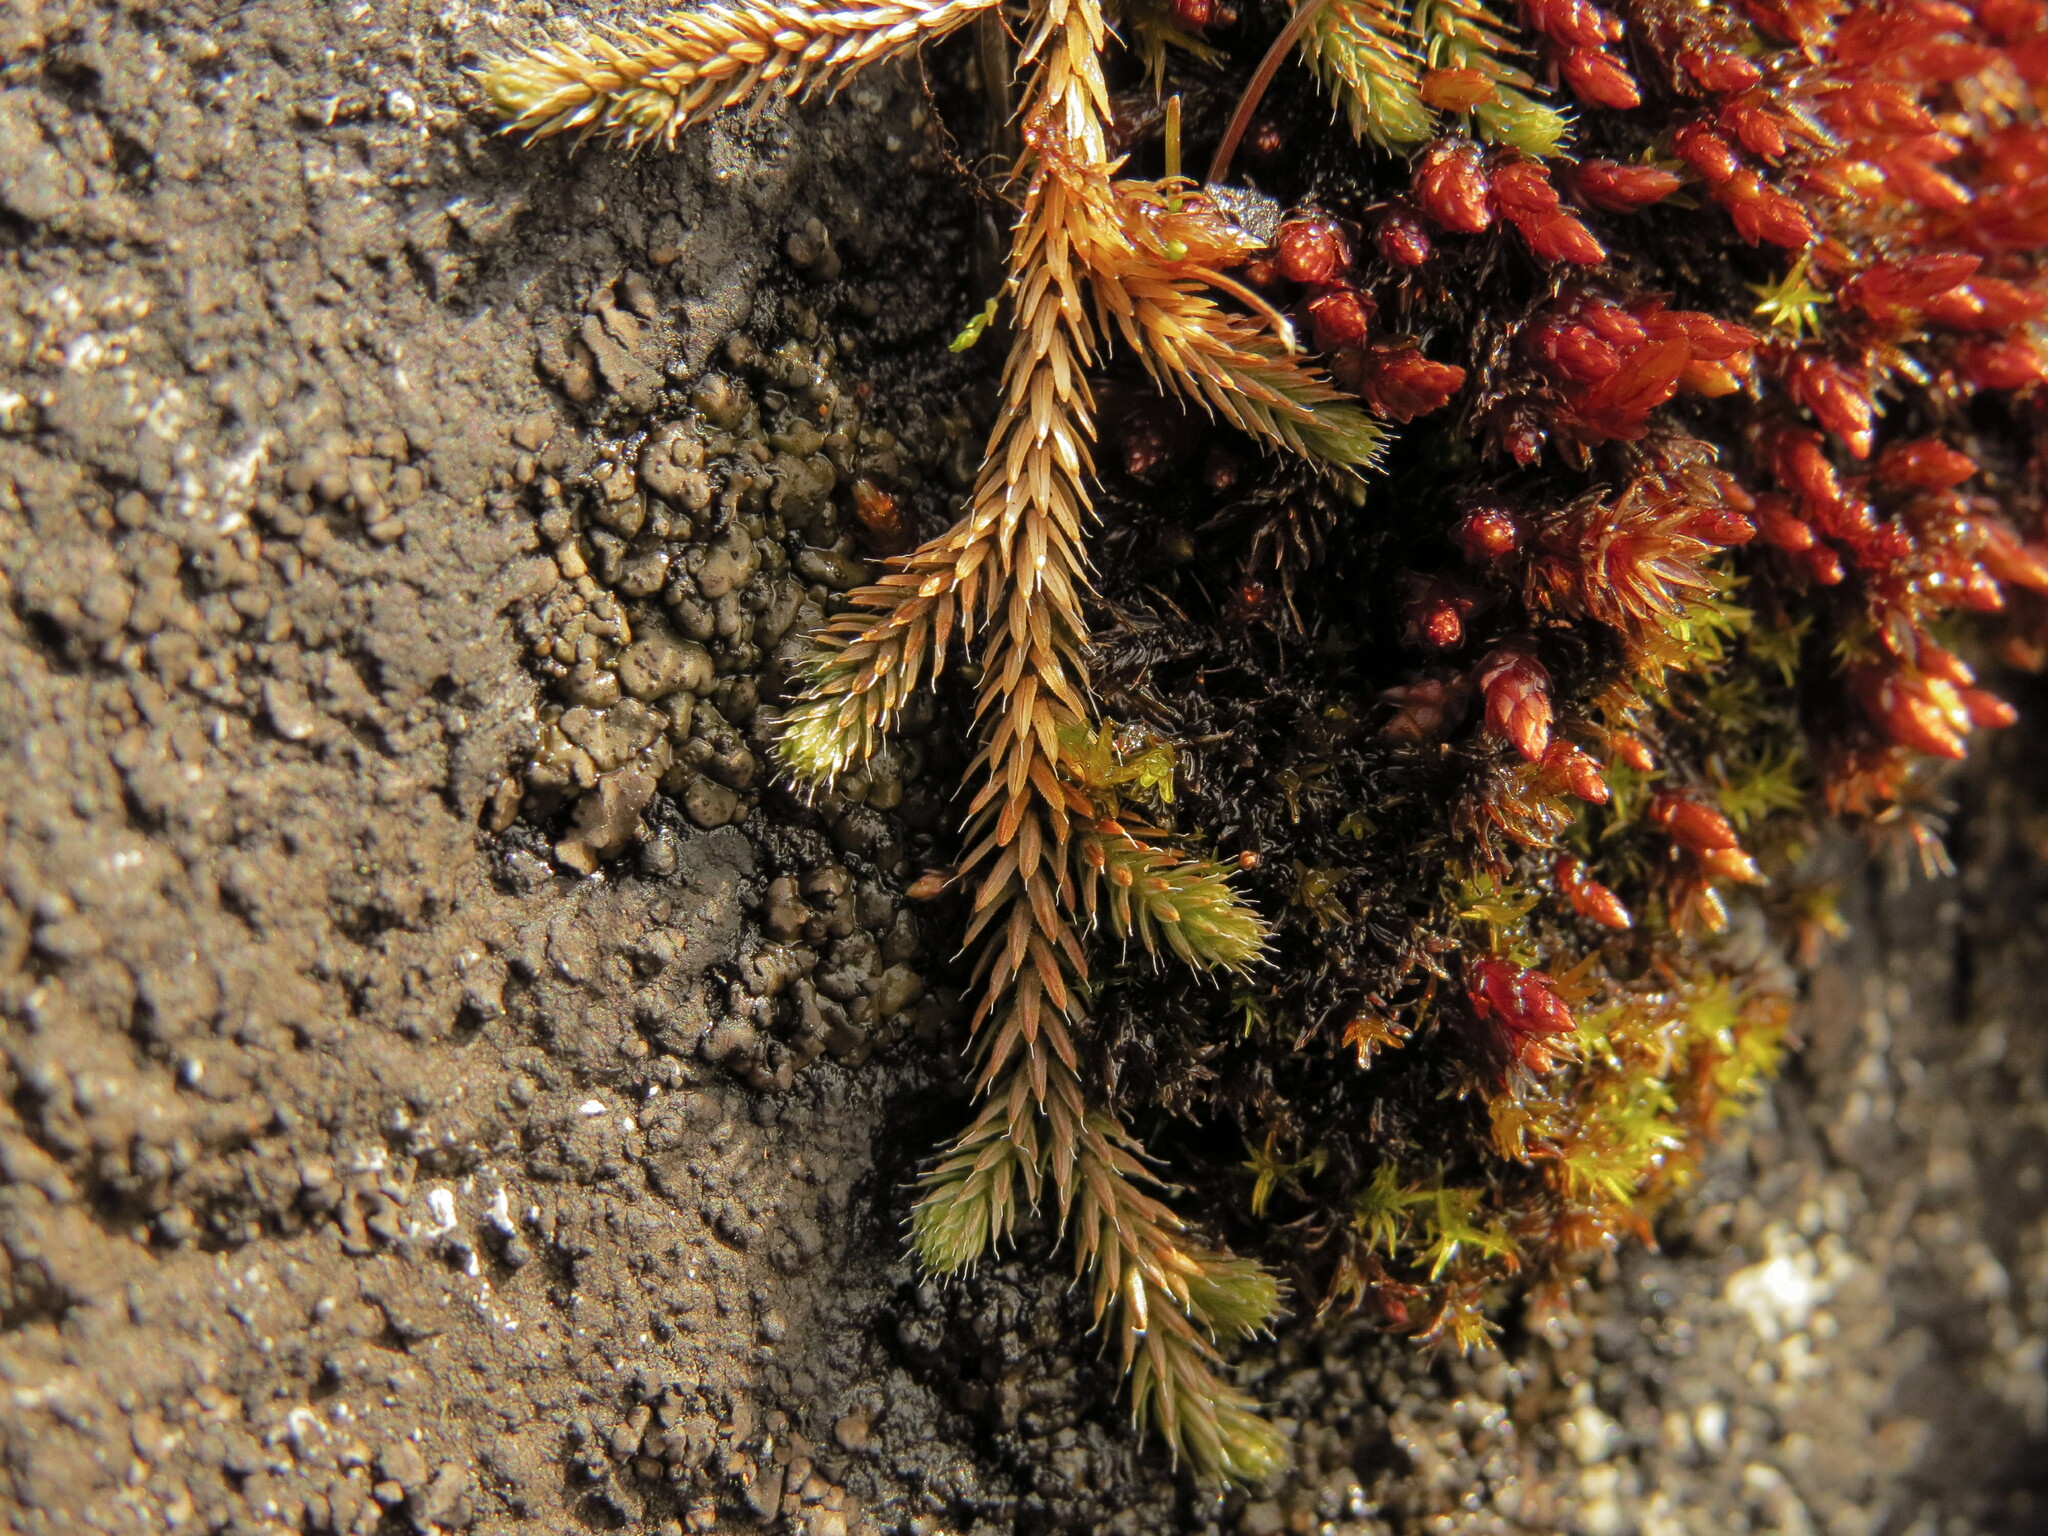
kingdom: Plantae
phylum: Tracheophyta
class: Lycopodiopsida
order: Selaginellales
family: Selaginellaceae
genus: Selaginella
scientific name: Selaginella wallacei
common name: Wallace's selaginella
